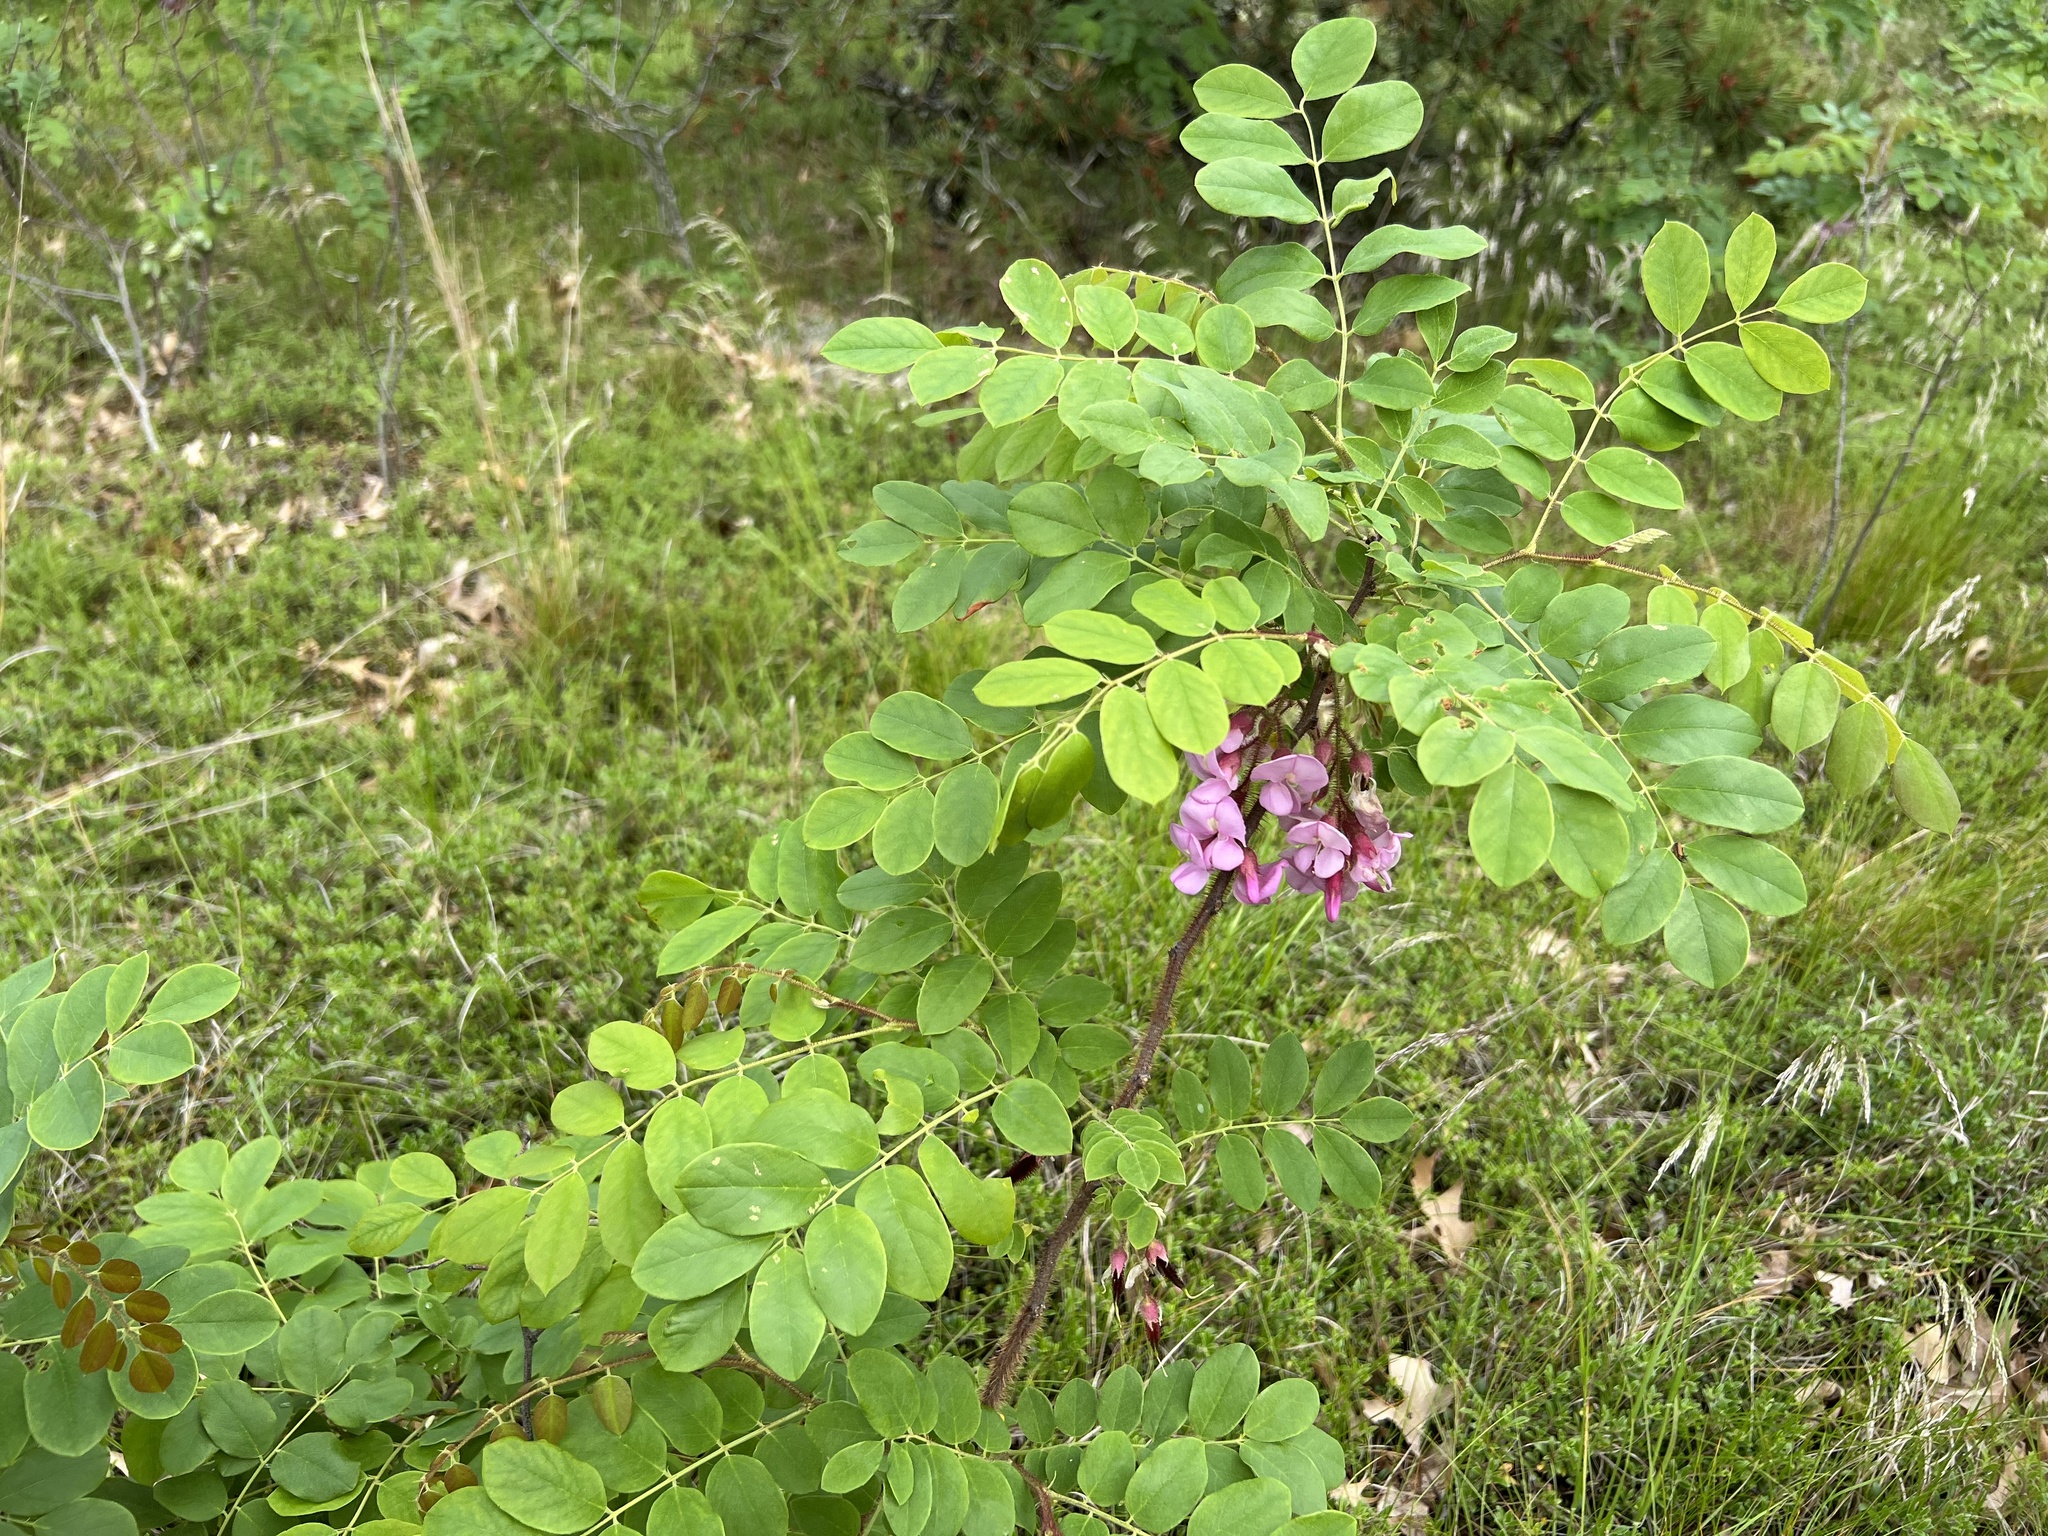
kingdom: Plantae
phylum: Tracheophyta
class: Magnoliopsida
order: Fabales
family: Fabaceae
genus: Robinia
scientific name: Robinia hispida
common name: Bristly locust
